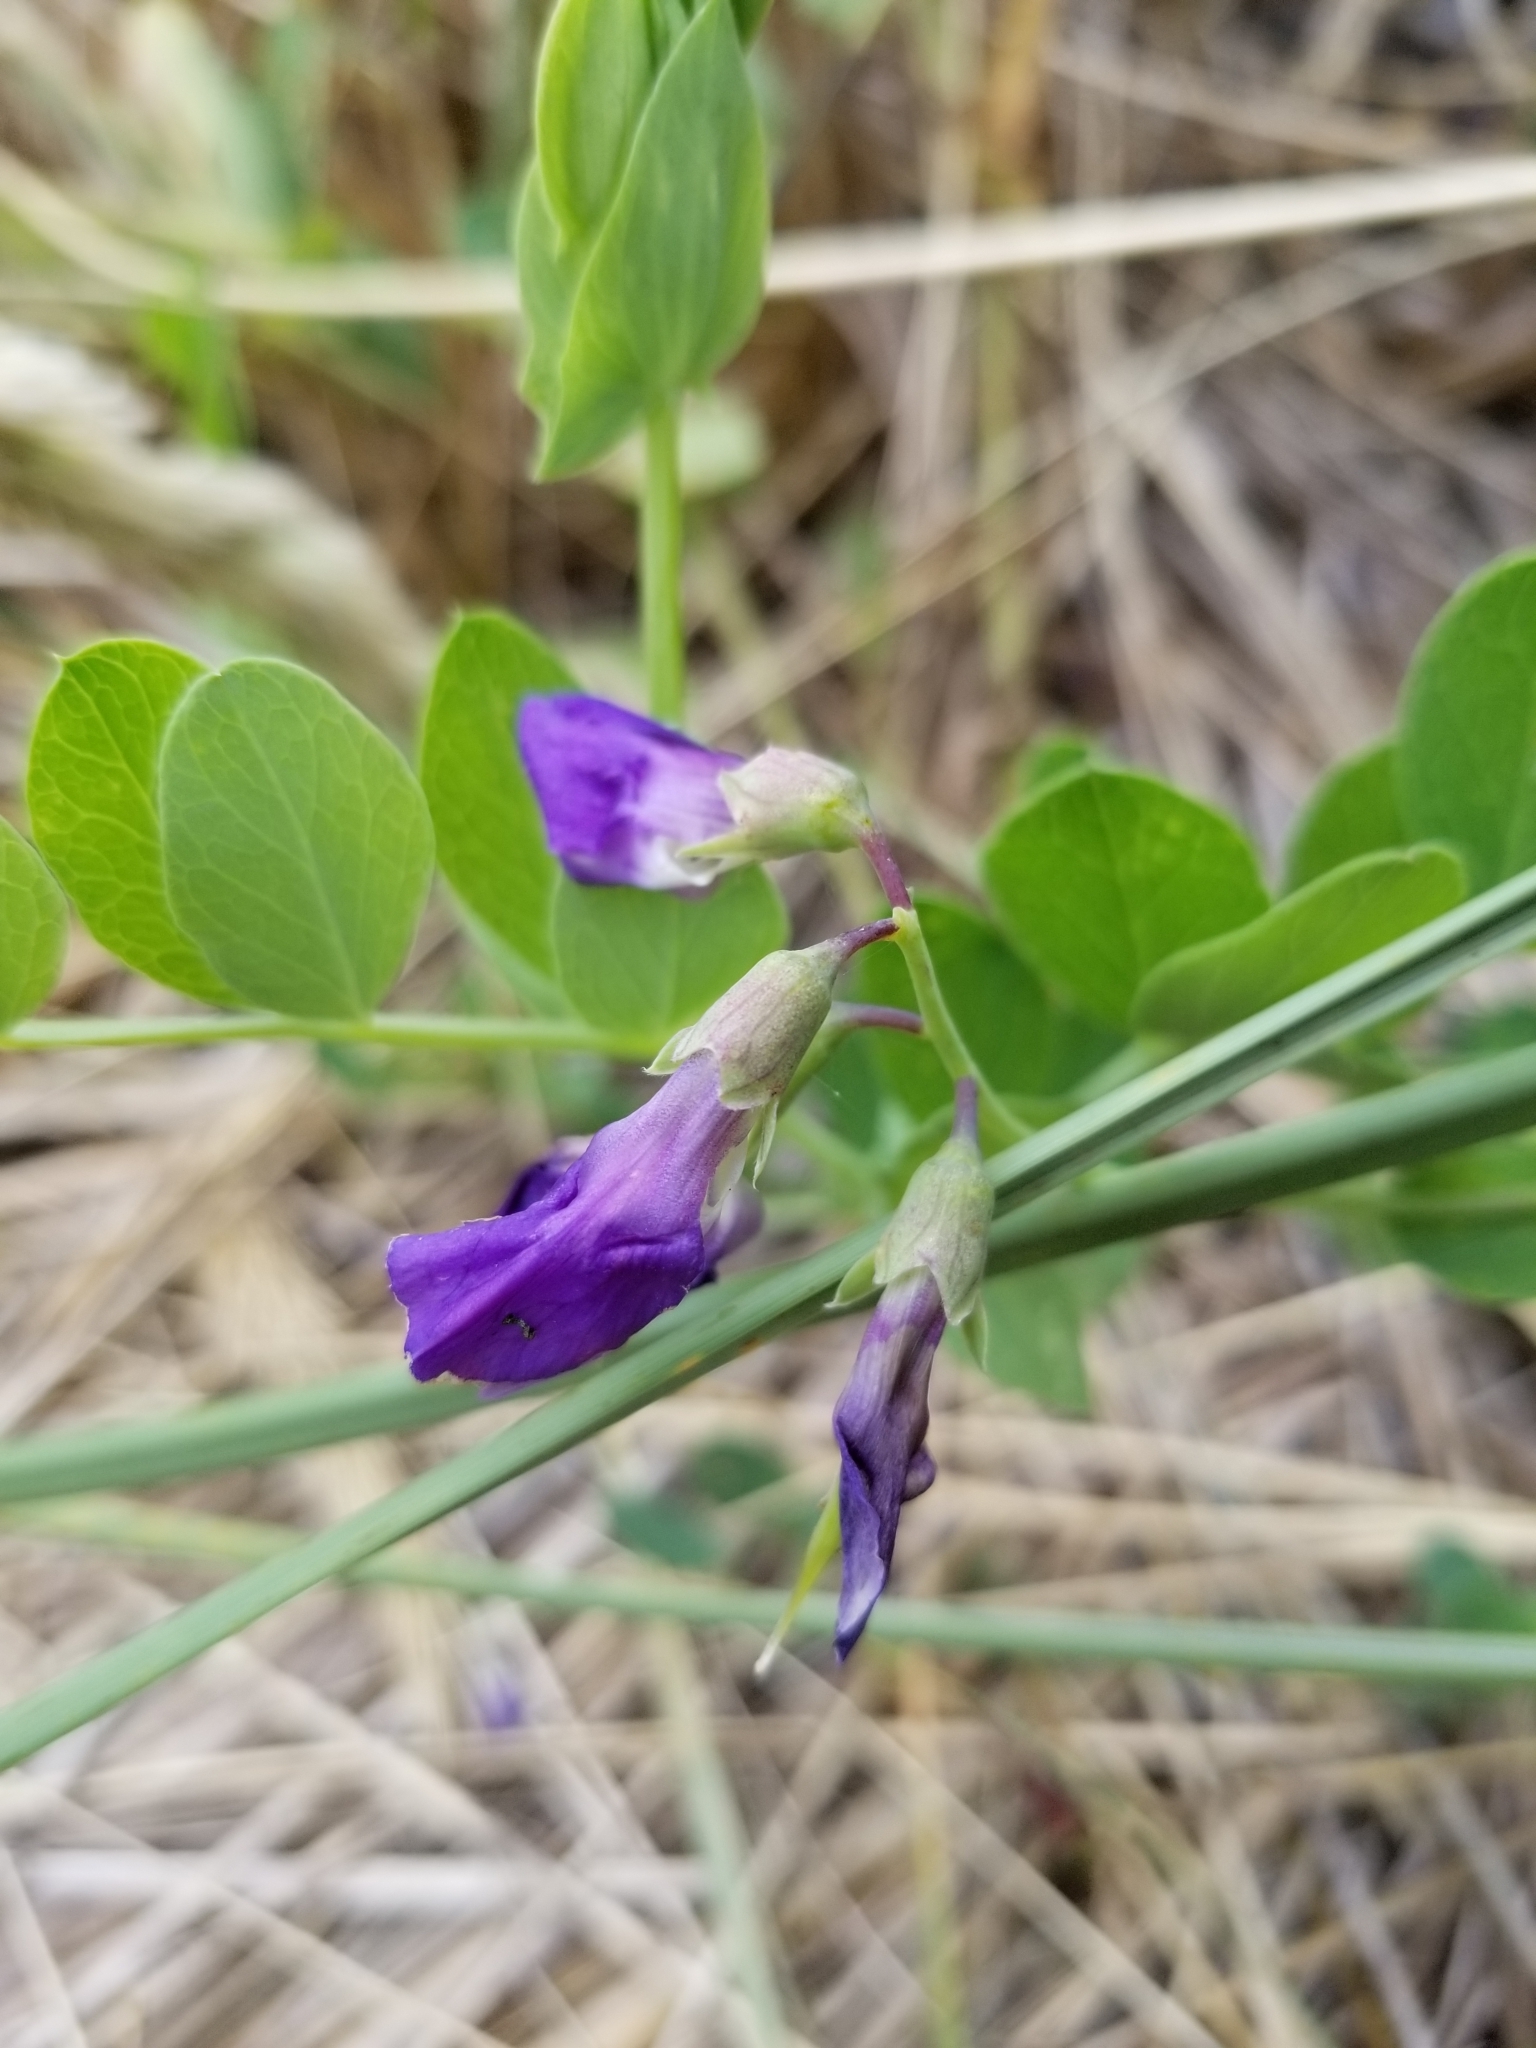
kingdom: Plantae
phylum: Tracheophyta
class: Magnoliopsida
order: Fabales
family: Fabaceae
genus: Lathyrus
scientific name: Lathyrus japonicus
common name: Sea pea
